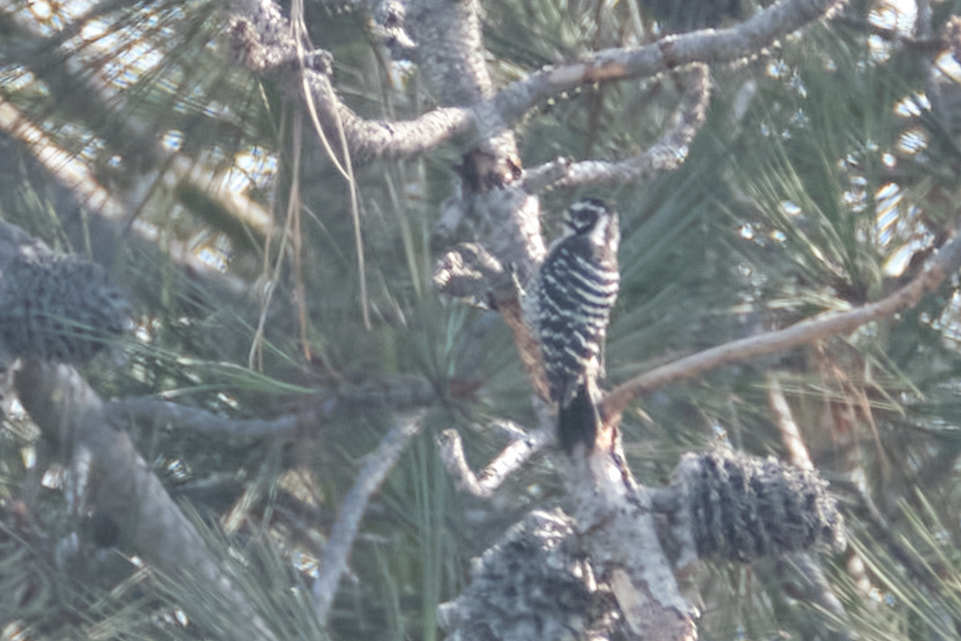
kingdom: Animalia
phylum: Chordata
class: Aves
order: Piciformes
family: Picidae
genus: Dryobates
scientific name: Dryobates nuttallii
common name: Nuttall's woodpecker
